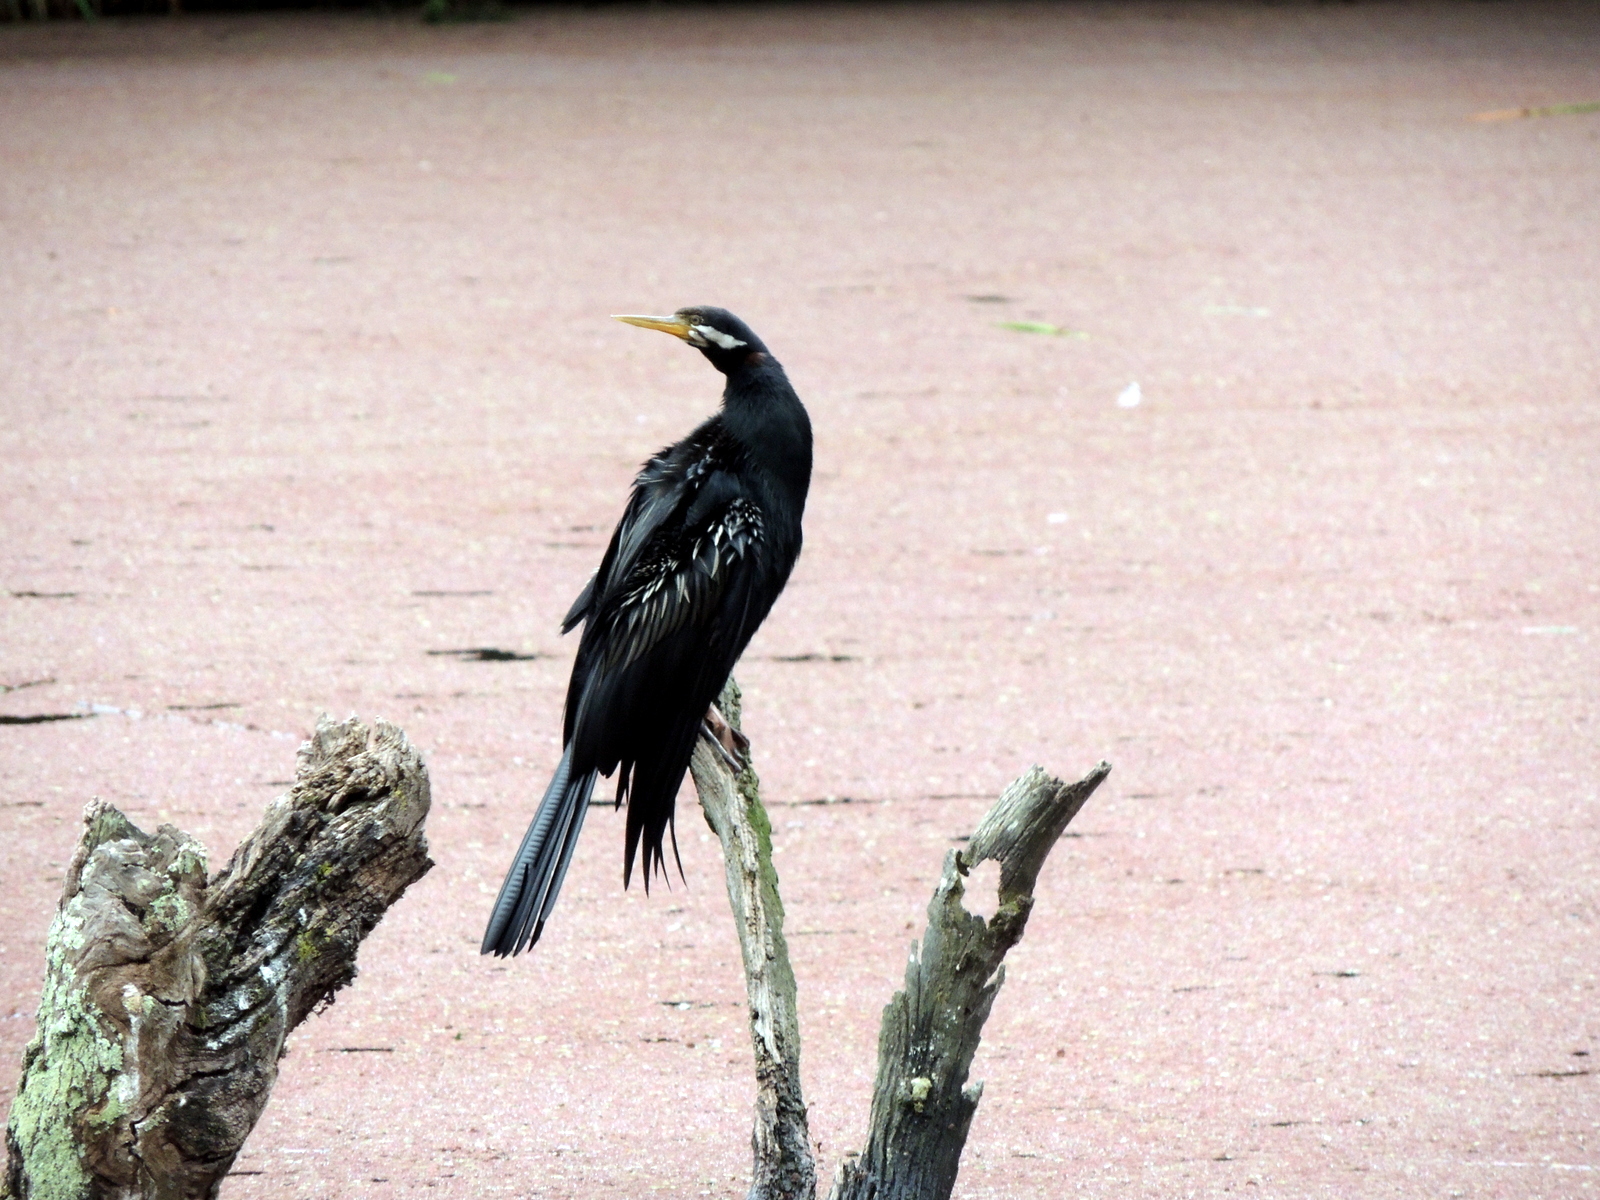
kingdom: Animalia
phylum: Chordata
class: Aves
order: Suliformes
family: Anhingidae
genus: Anhinga
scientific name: Anhinga novaehollandiae
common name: Australasian darter
